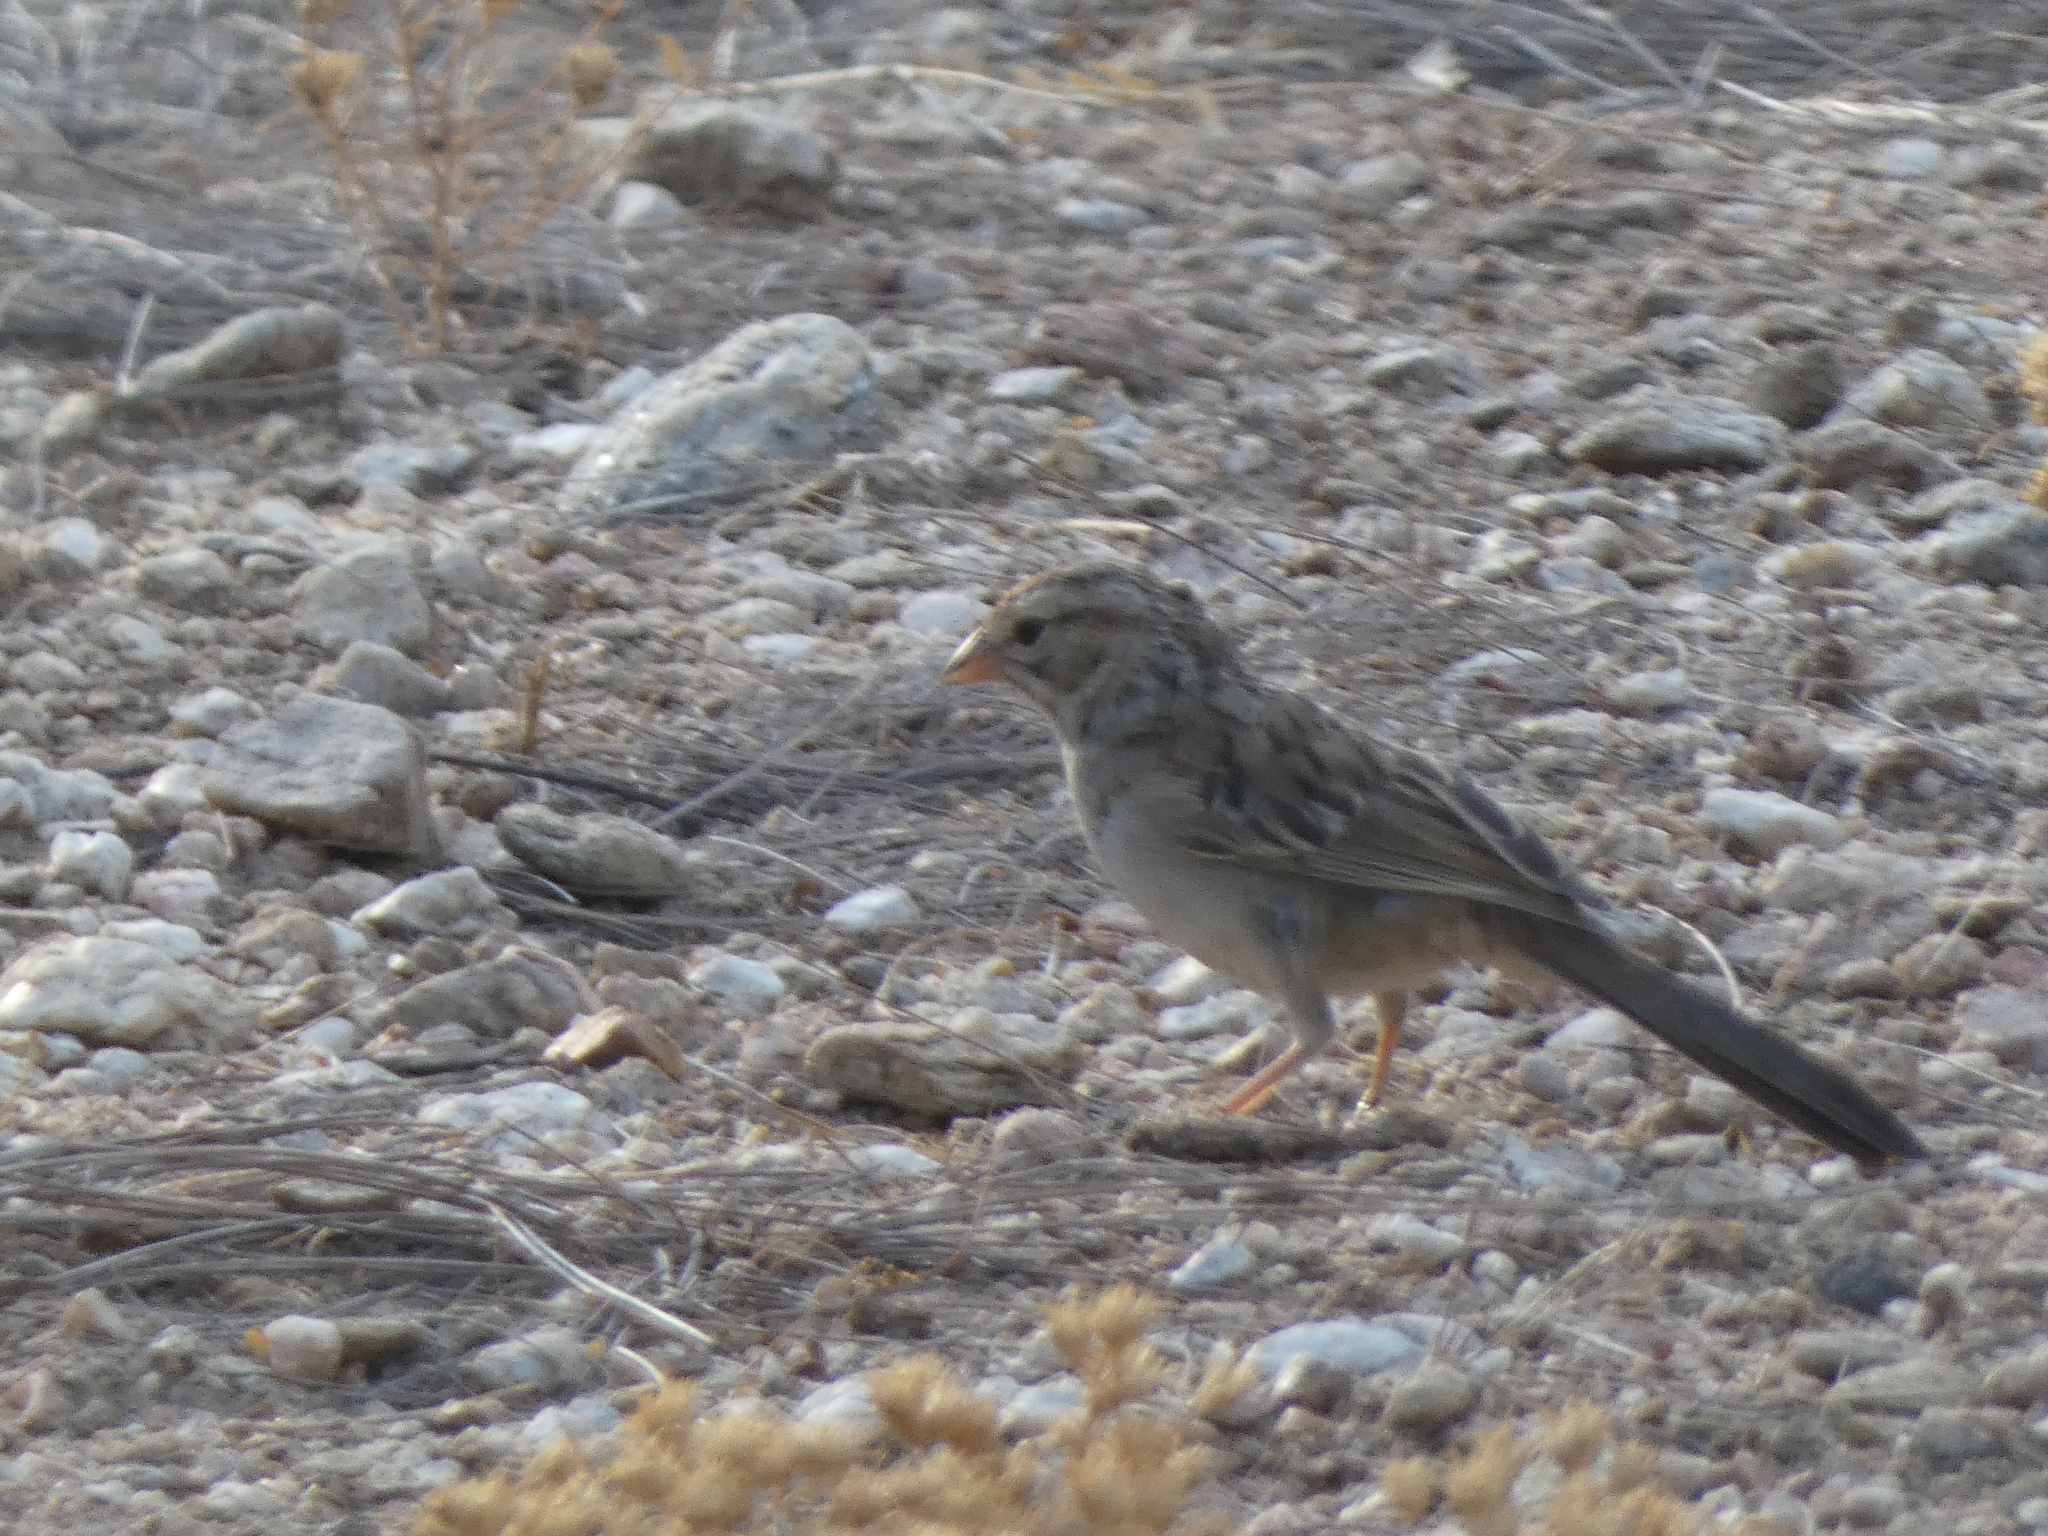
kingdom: Animalia
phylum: Chordata
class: Aves
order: Passeriformes
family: Passerellidae
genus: Peucaea
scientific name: Peucaea carpalis
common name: Rufous-winged sparrow
